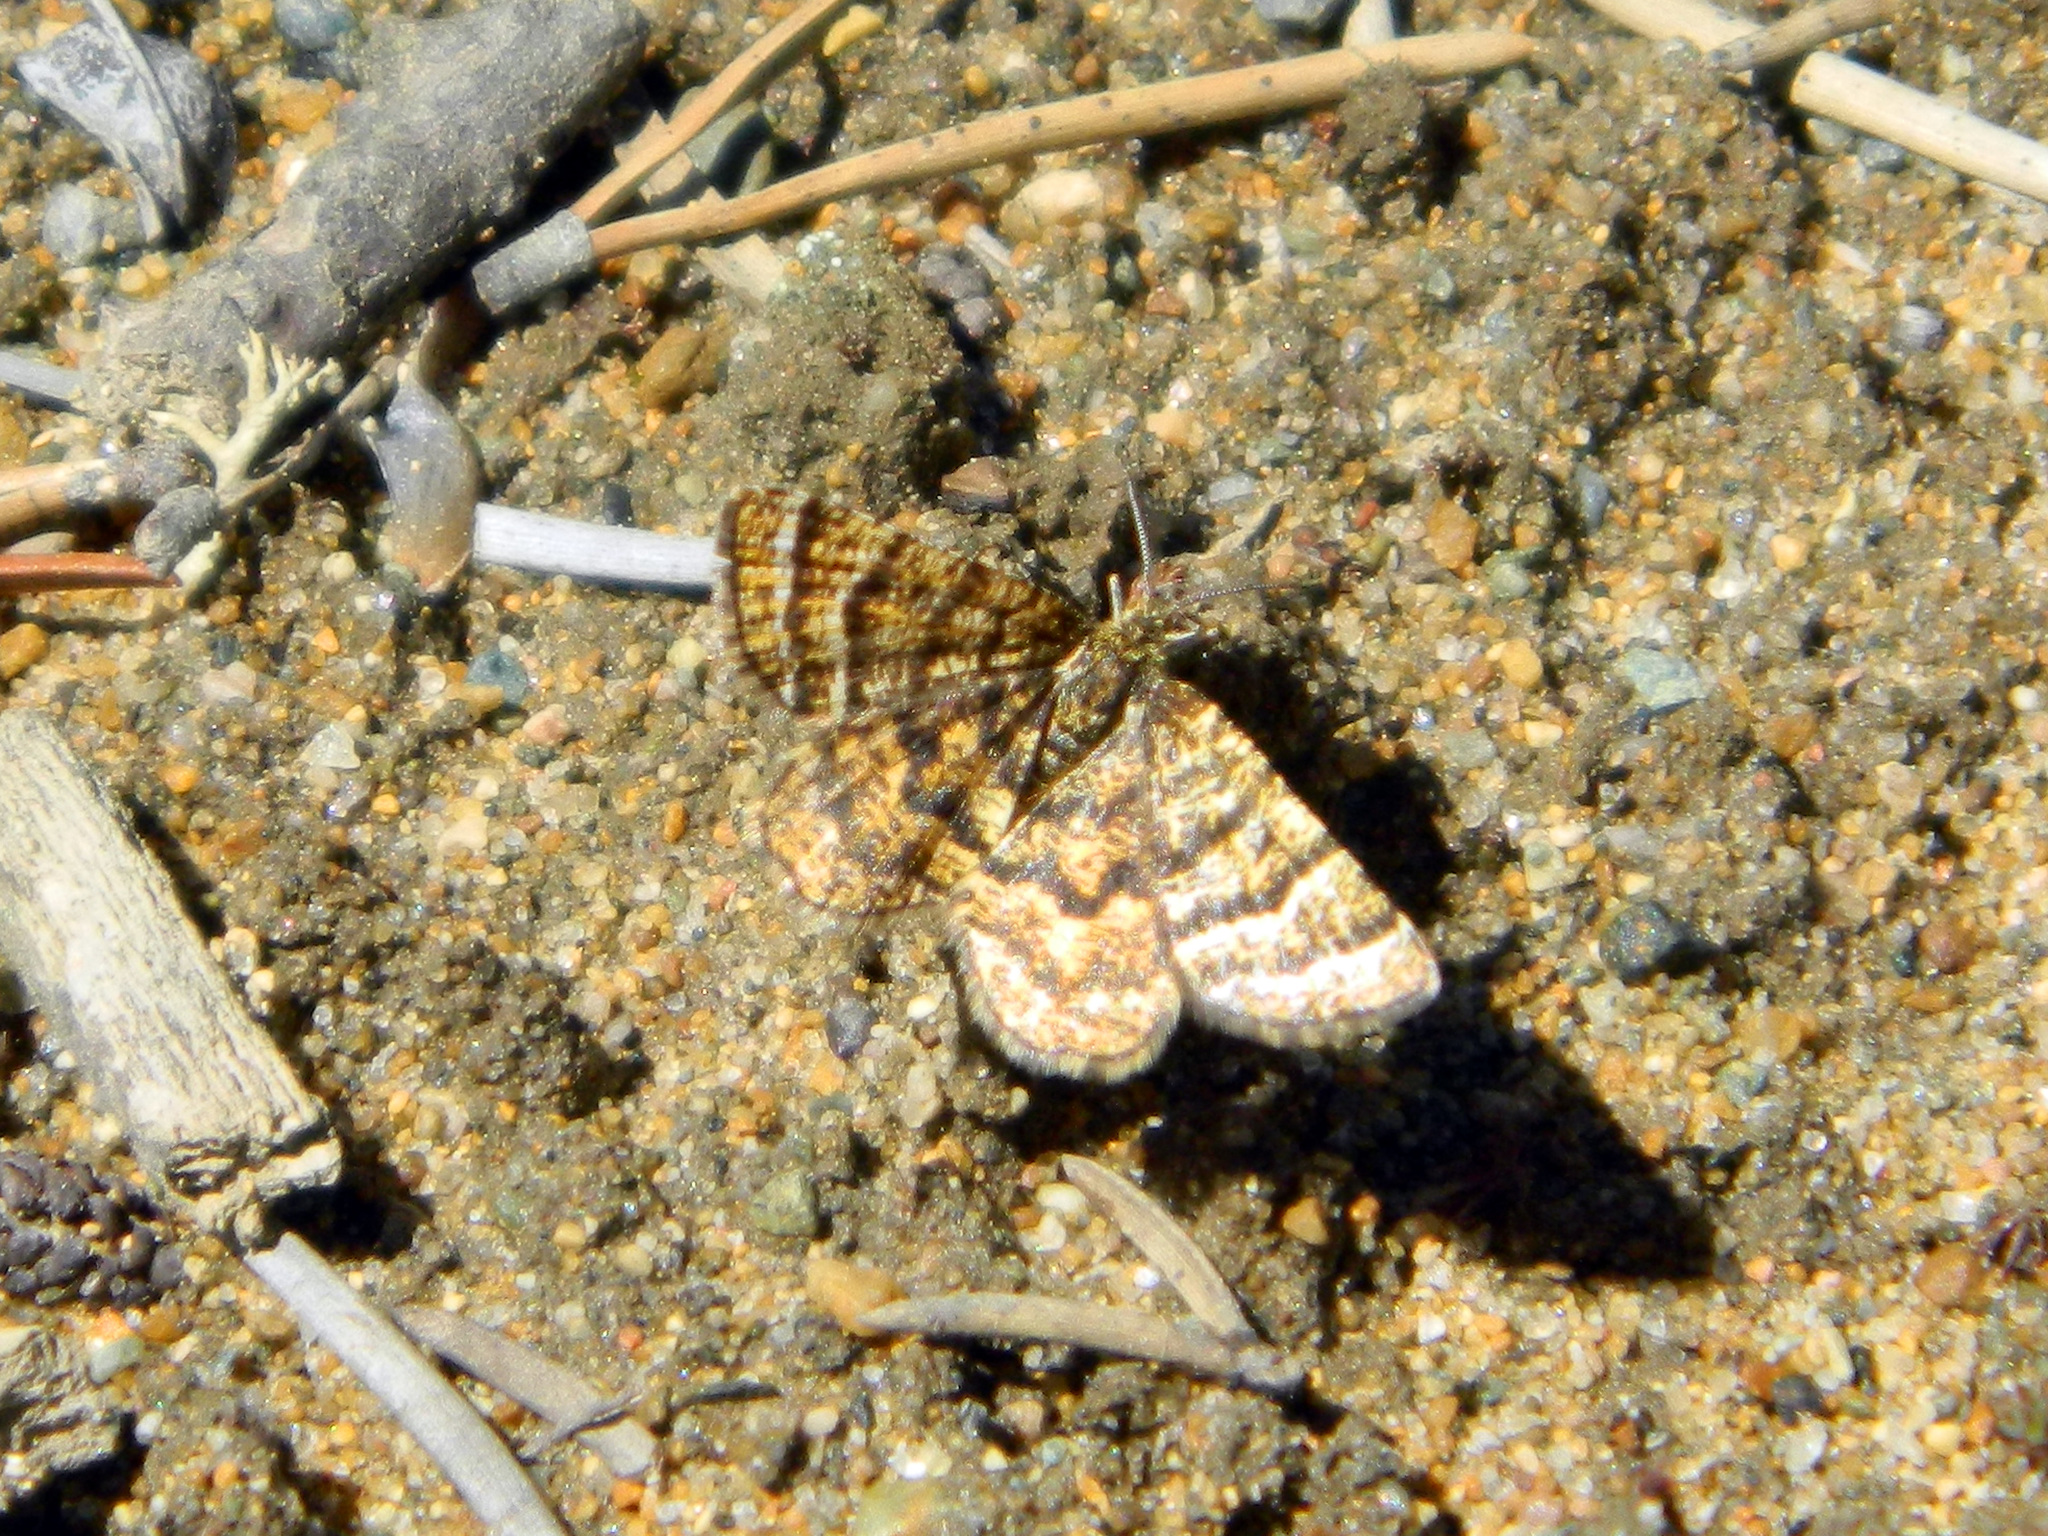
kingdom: Animalia
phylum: Arthropoda
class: Insecta
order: Lepidoptera
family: Geometridae
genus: Macaria
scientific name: Macaria truncataria
